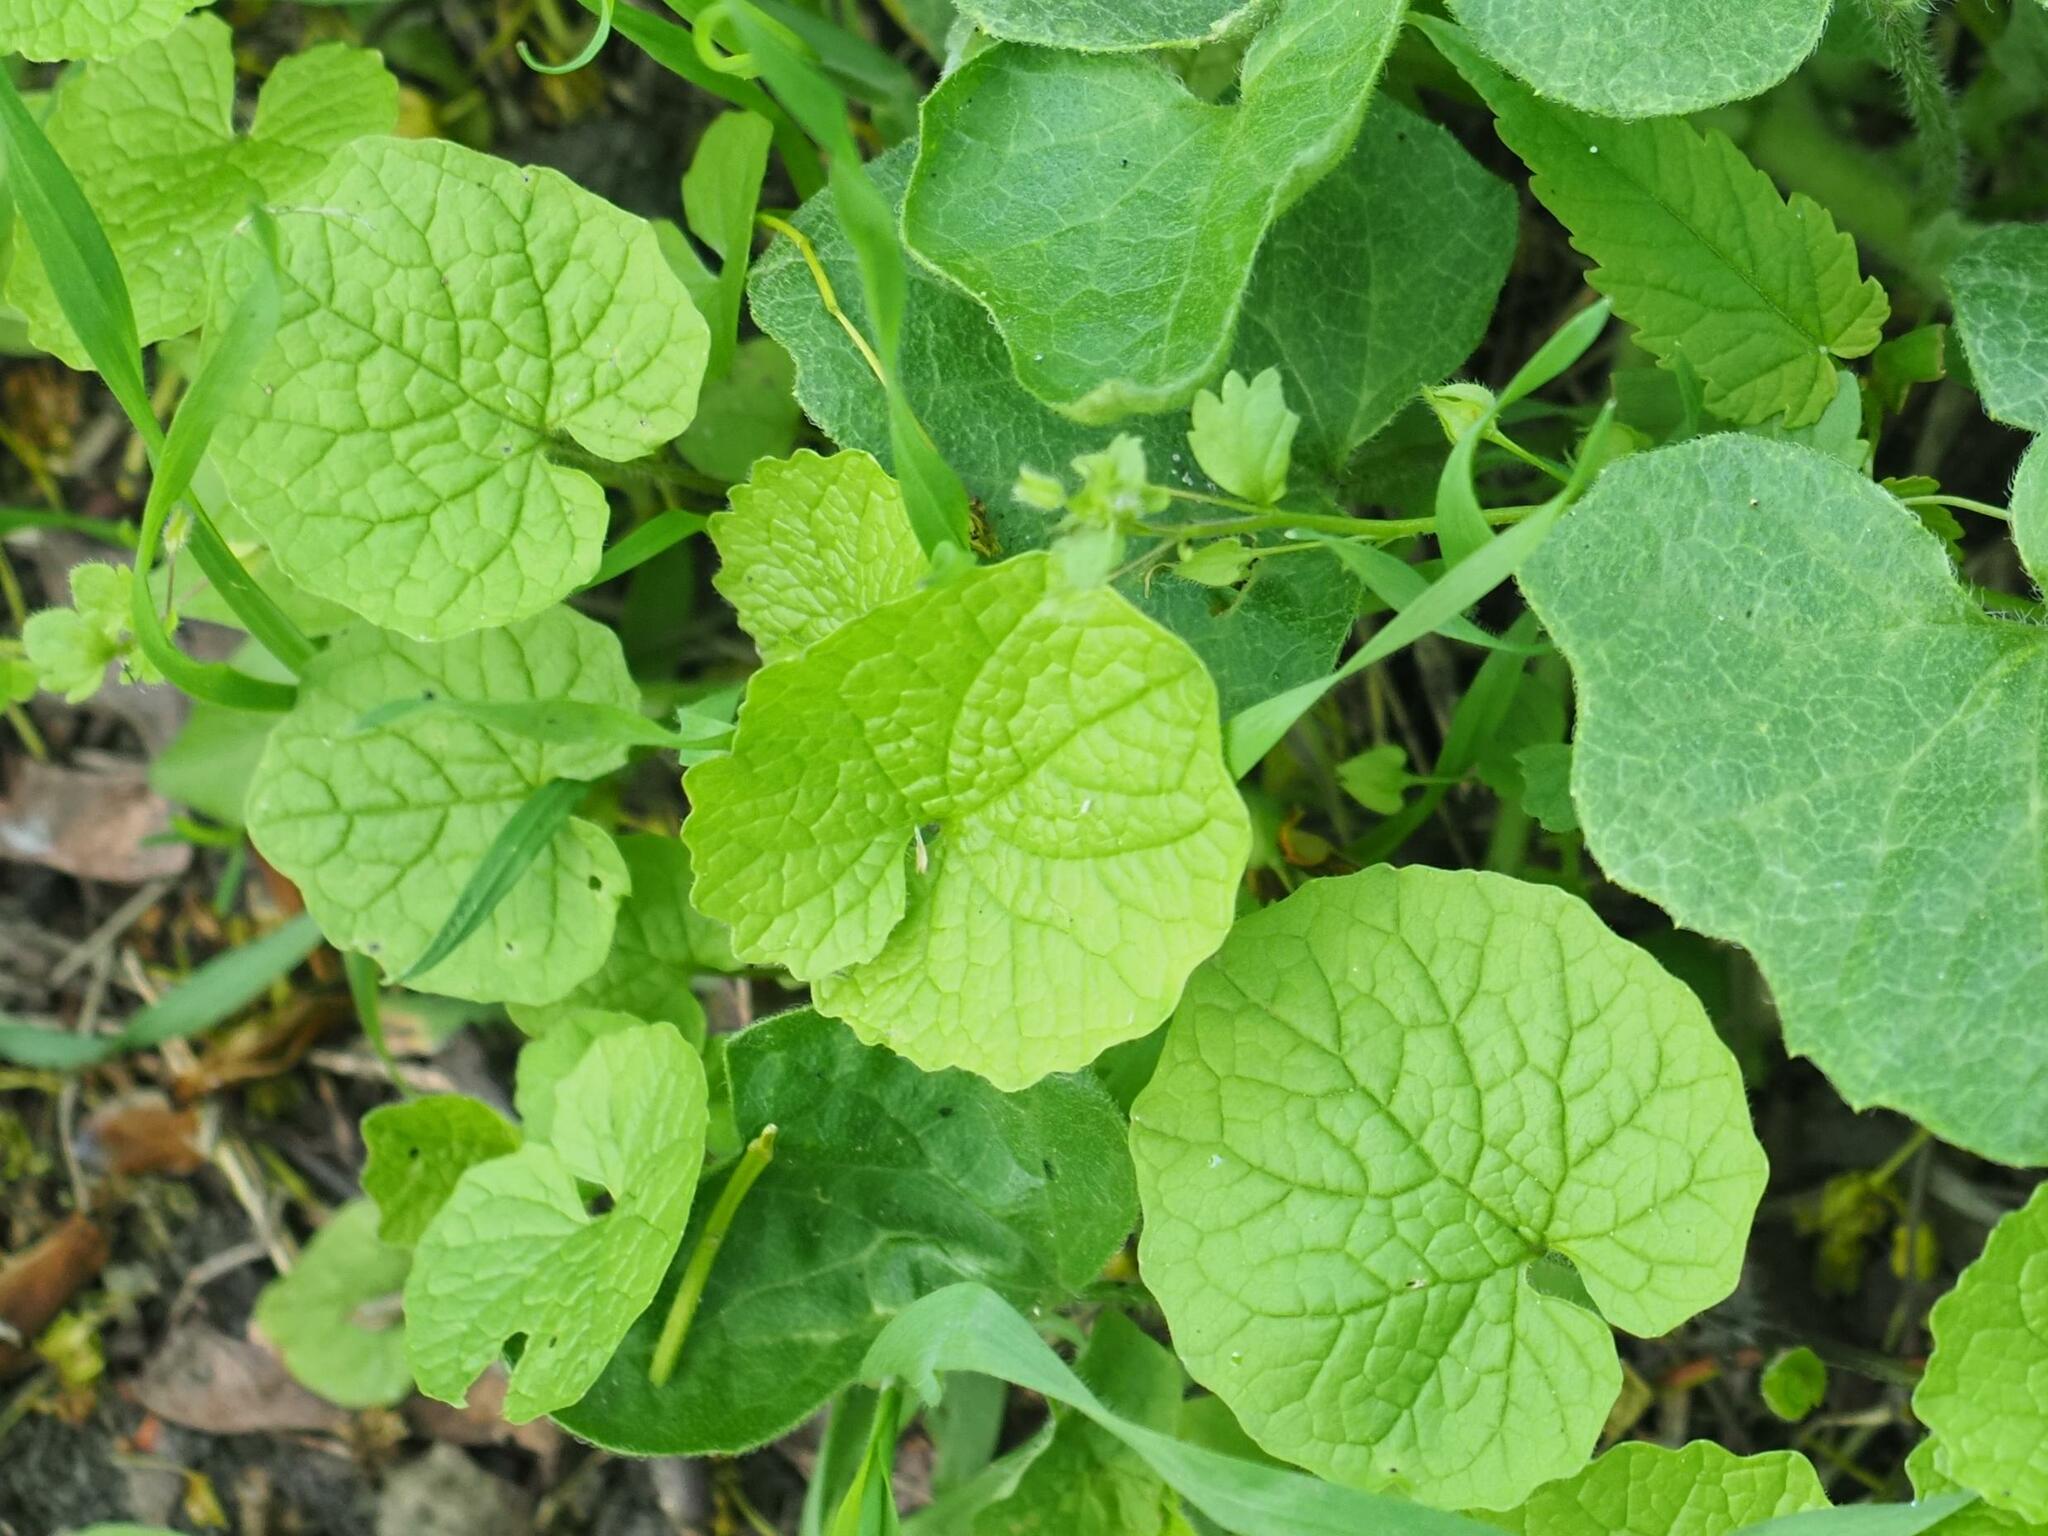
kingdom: Plantae
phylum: Tracheophyta
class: Magnoliopsida
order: Brassicales
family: Brassicaceae
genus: Alliaria
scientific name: Alliaria petiolata
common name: Garlic mustard
